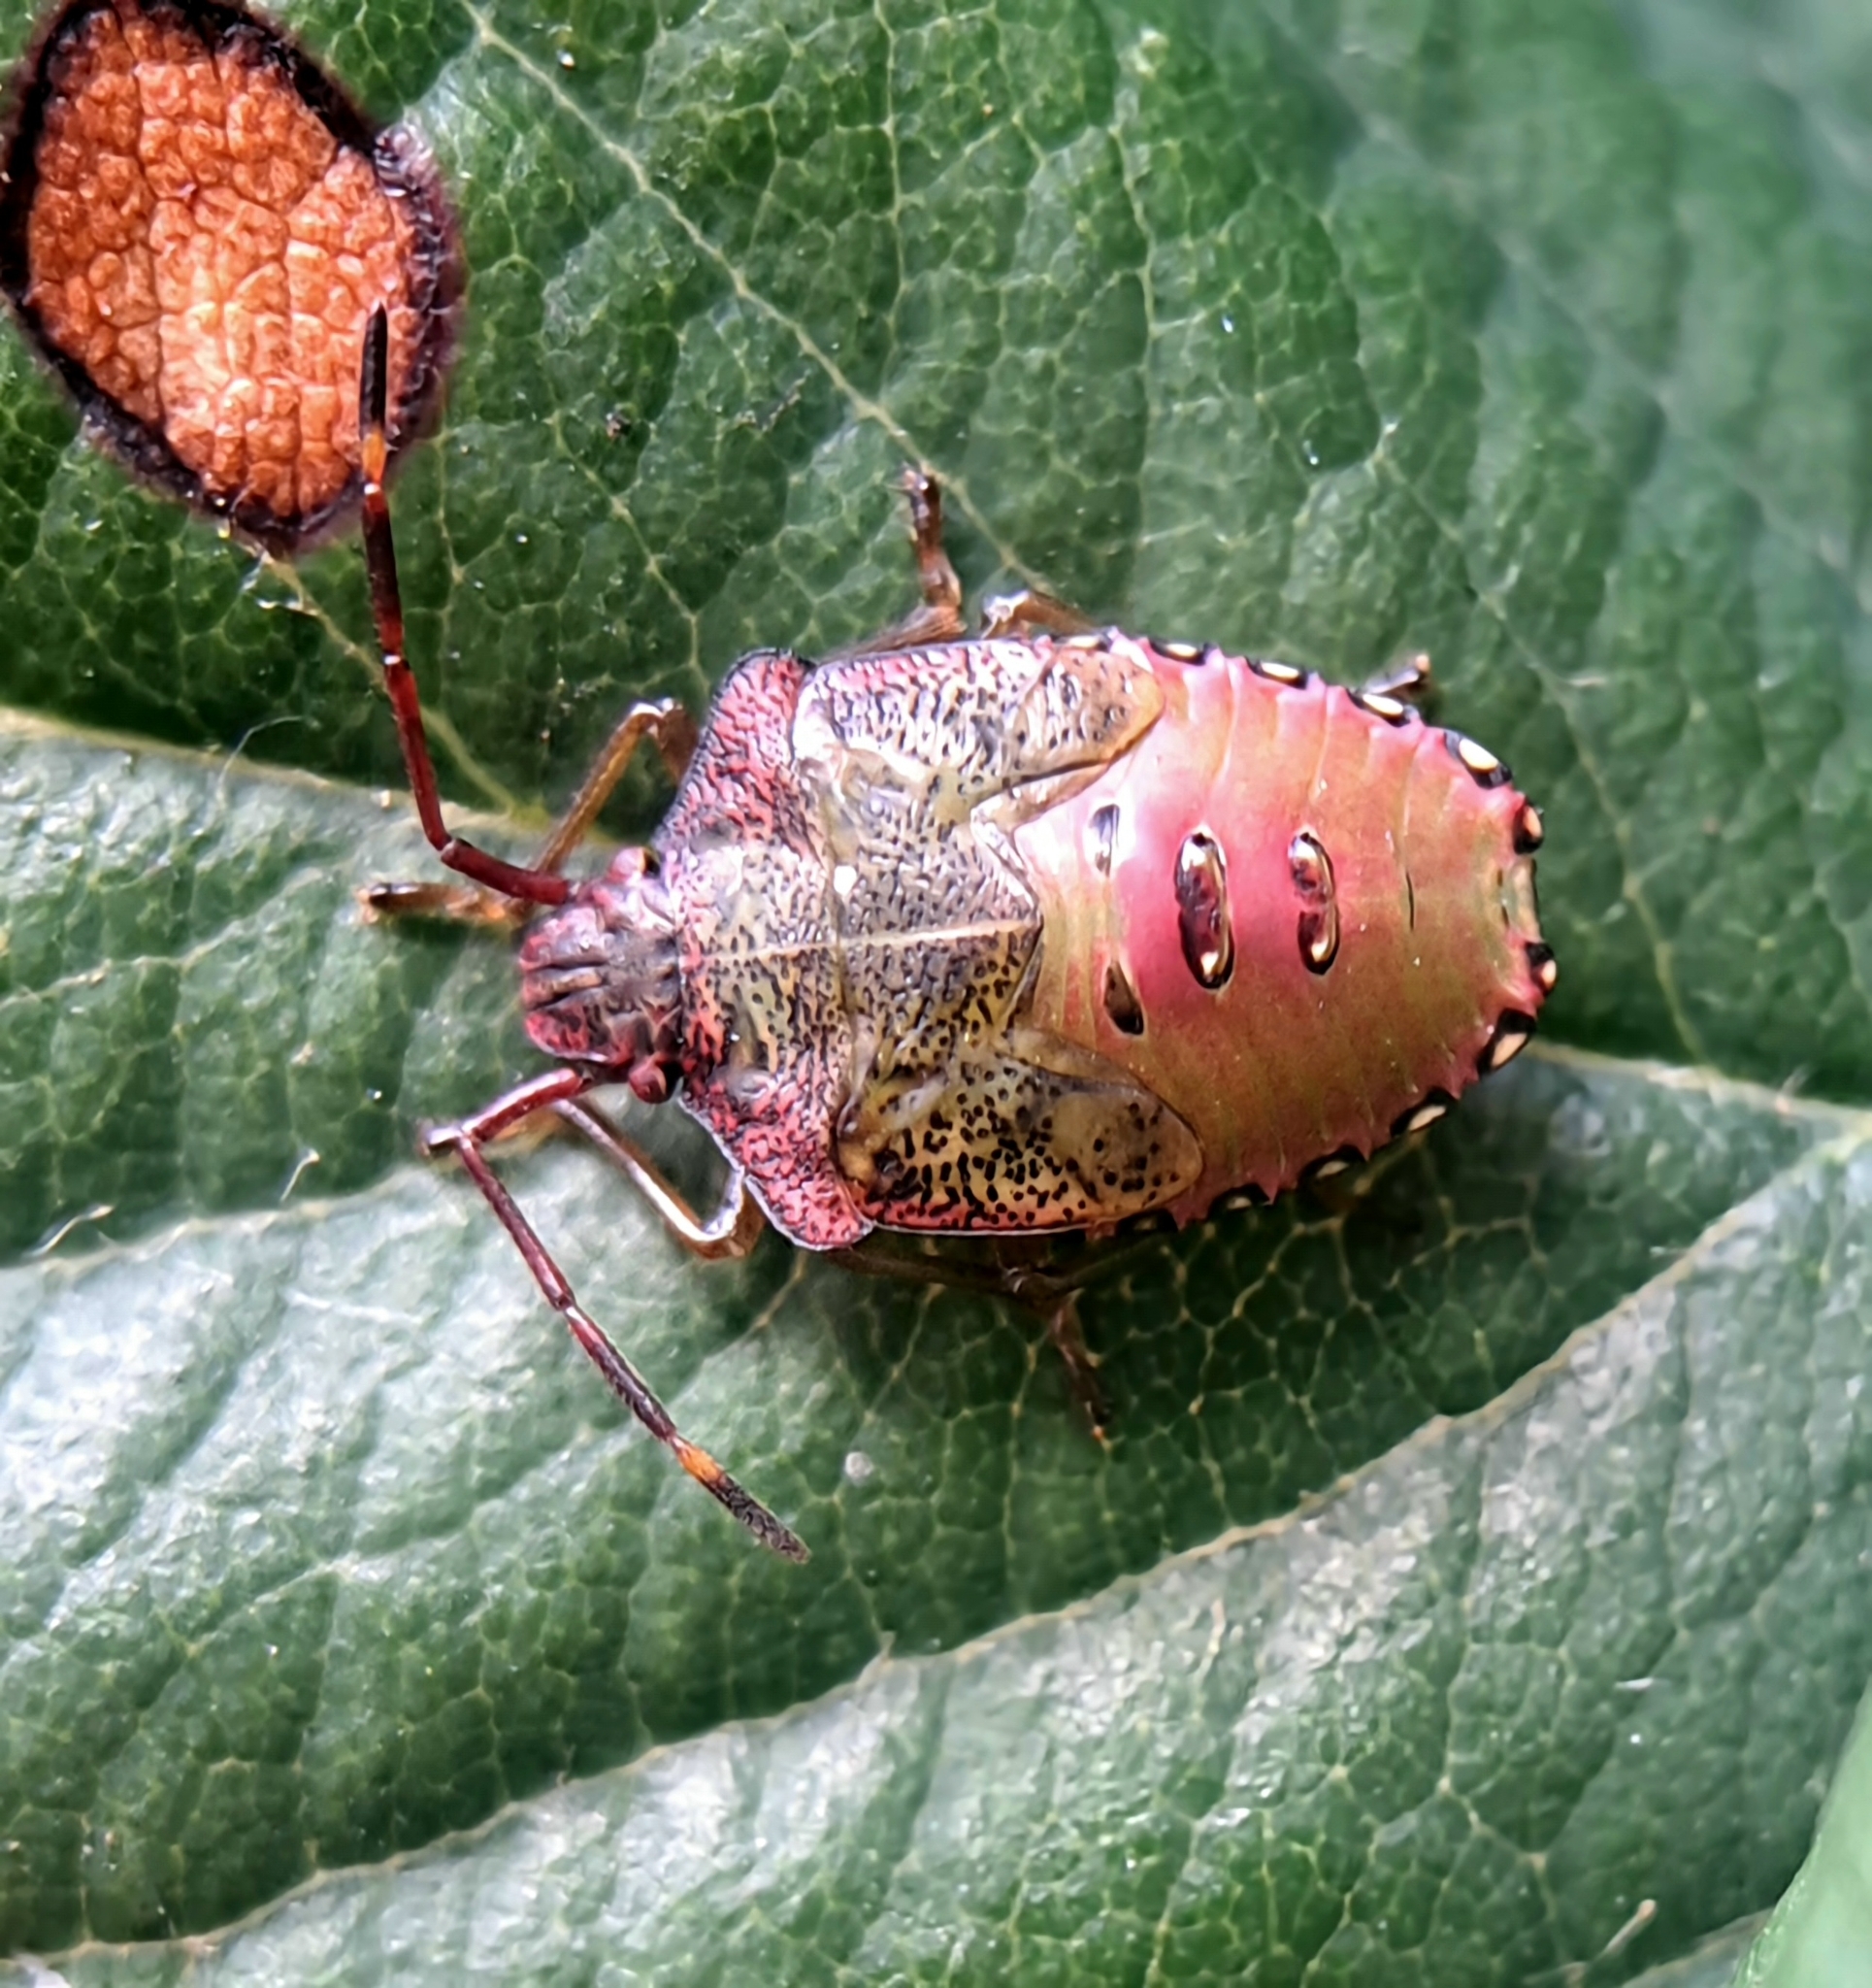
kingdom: Animalia
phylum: Arthropoda
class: Insecta
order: Hemiptera
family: Acanthosomatidae
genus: Acanthosoma
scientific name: Acanthosoma haemorrhoidale
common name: Hawthorn shieldbug
